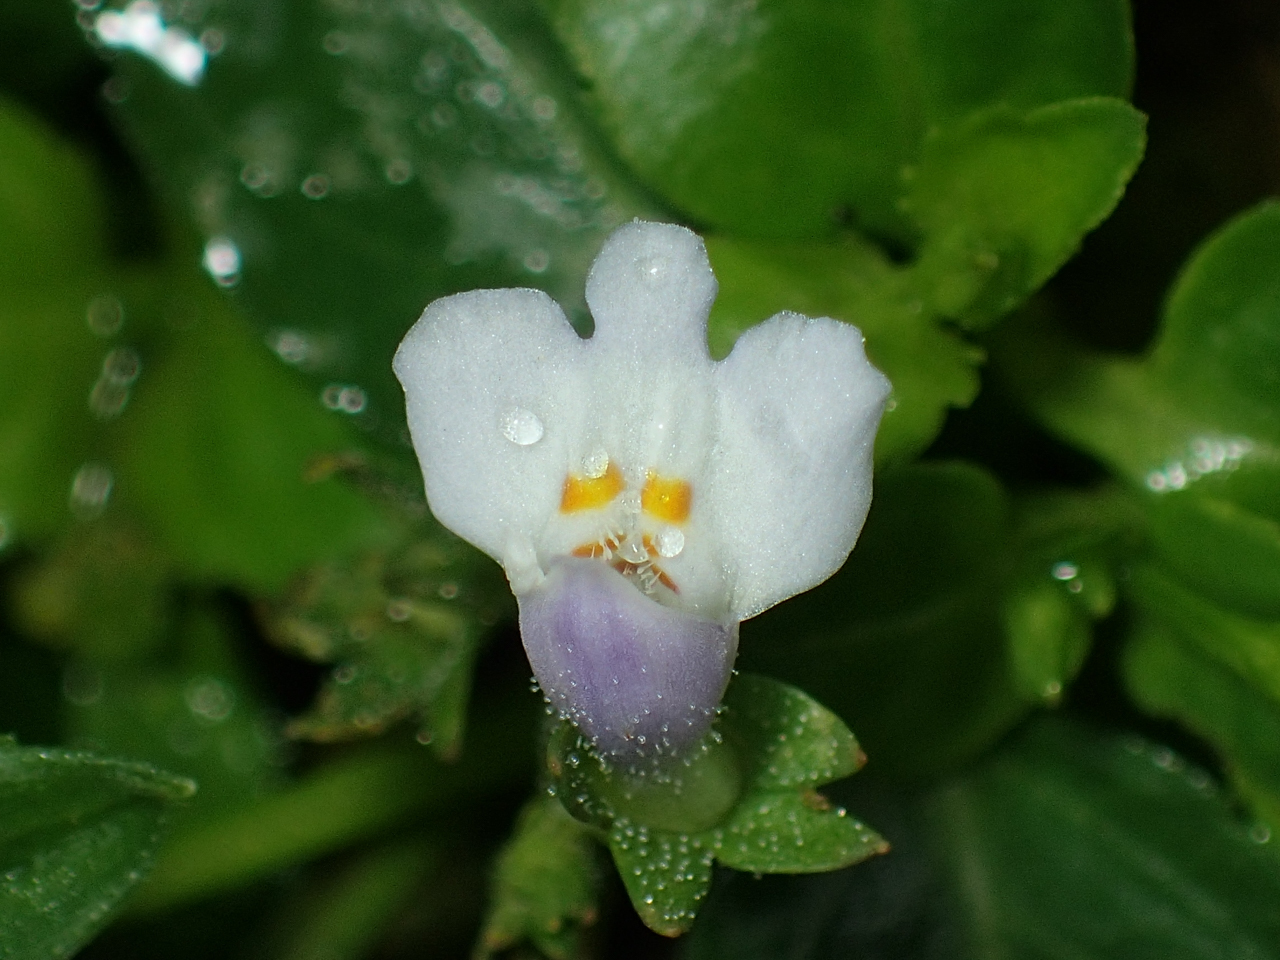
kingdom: Plantae
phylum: Tracheophyta
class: Magnoliopsida
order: Lamiales
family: Mazaceae
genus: Mazus
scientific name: Mazus pumilus
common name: Japanese mazus
